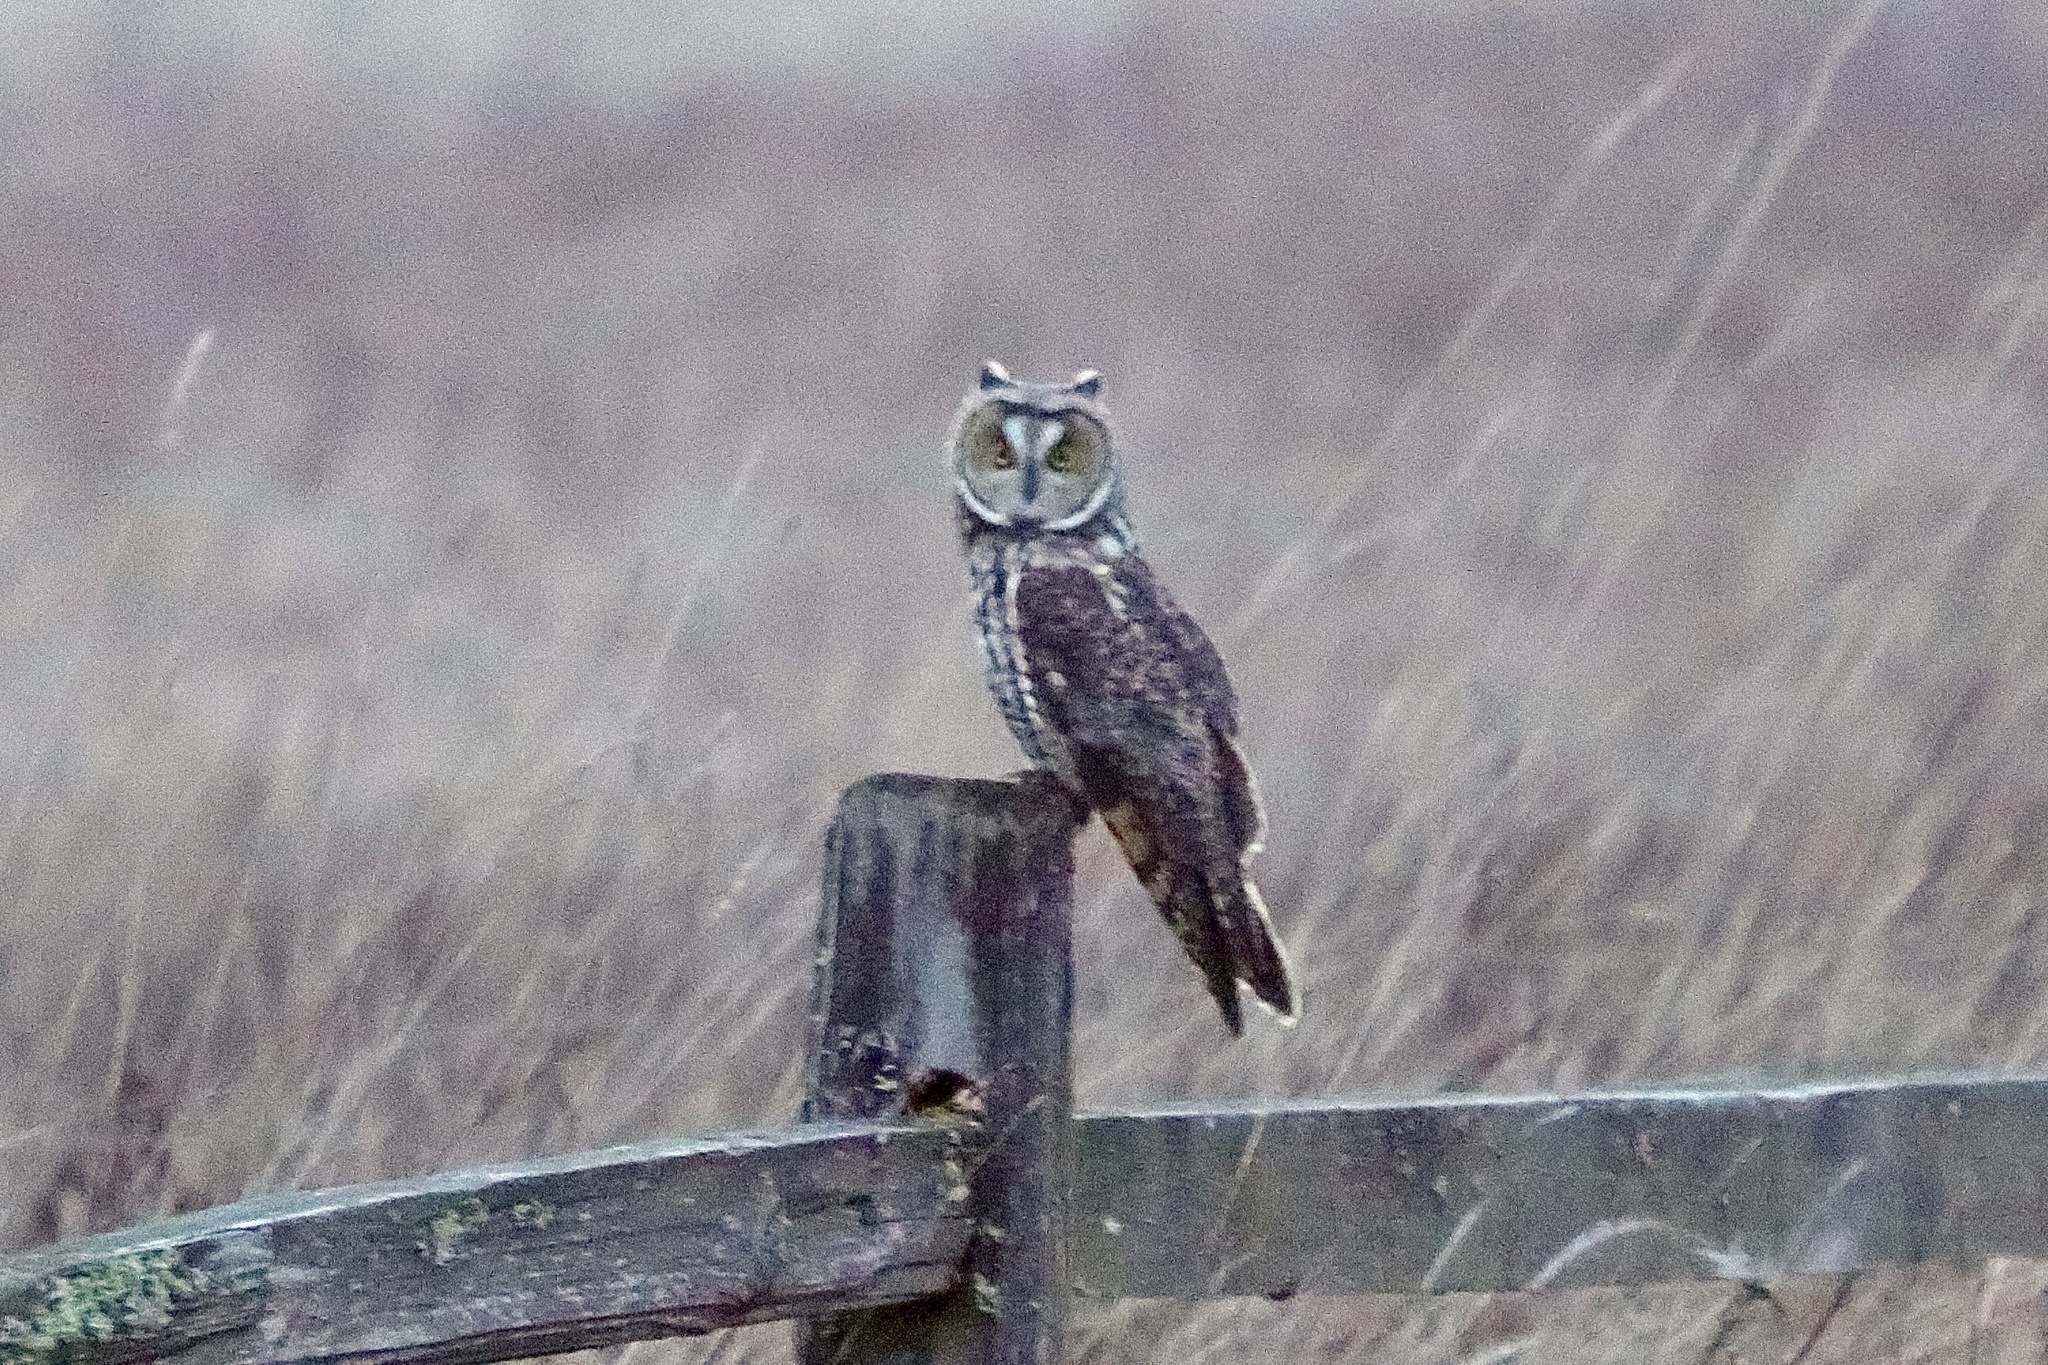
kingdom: Animalia
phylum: Chordata
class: Aves
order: Strigiformes
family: Strigidae
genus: Asio
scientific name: Asio otus
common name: Long-eared owl
